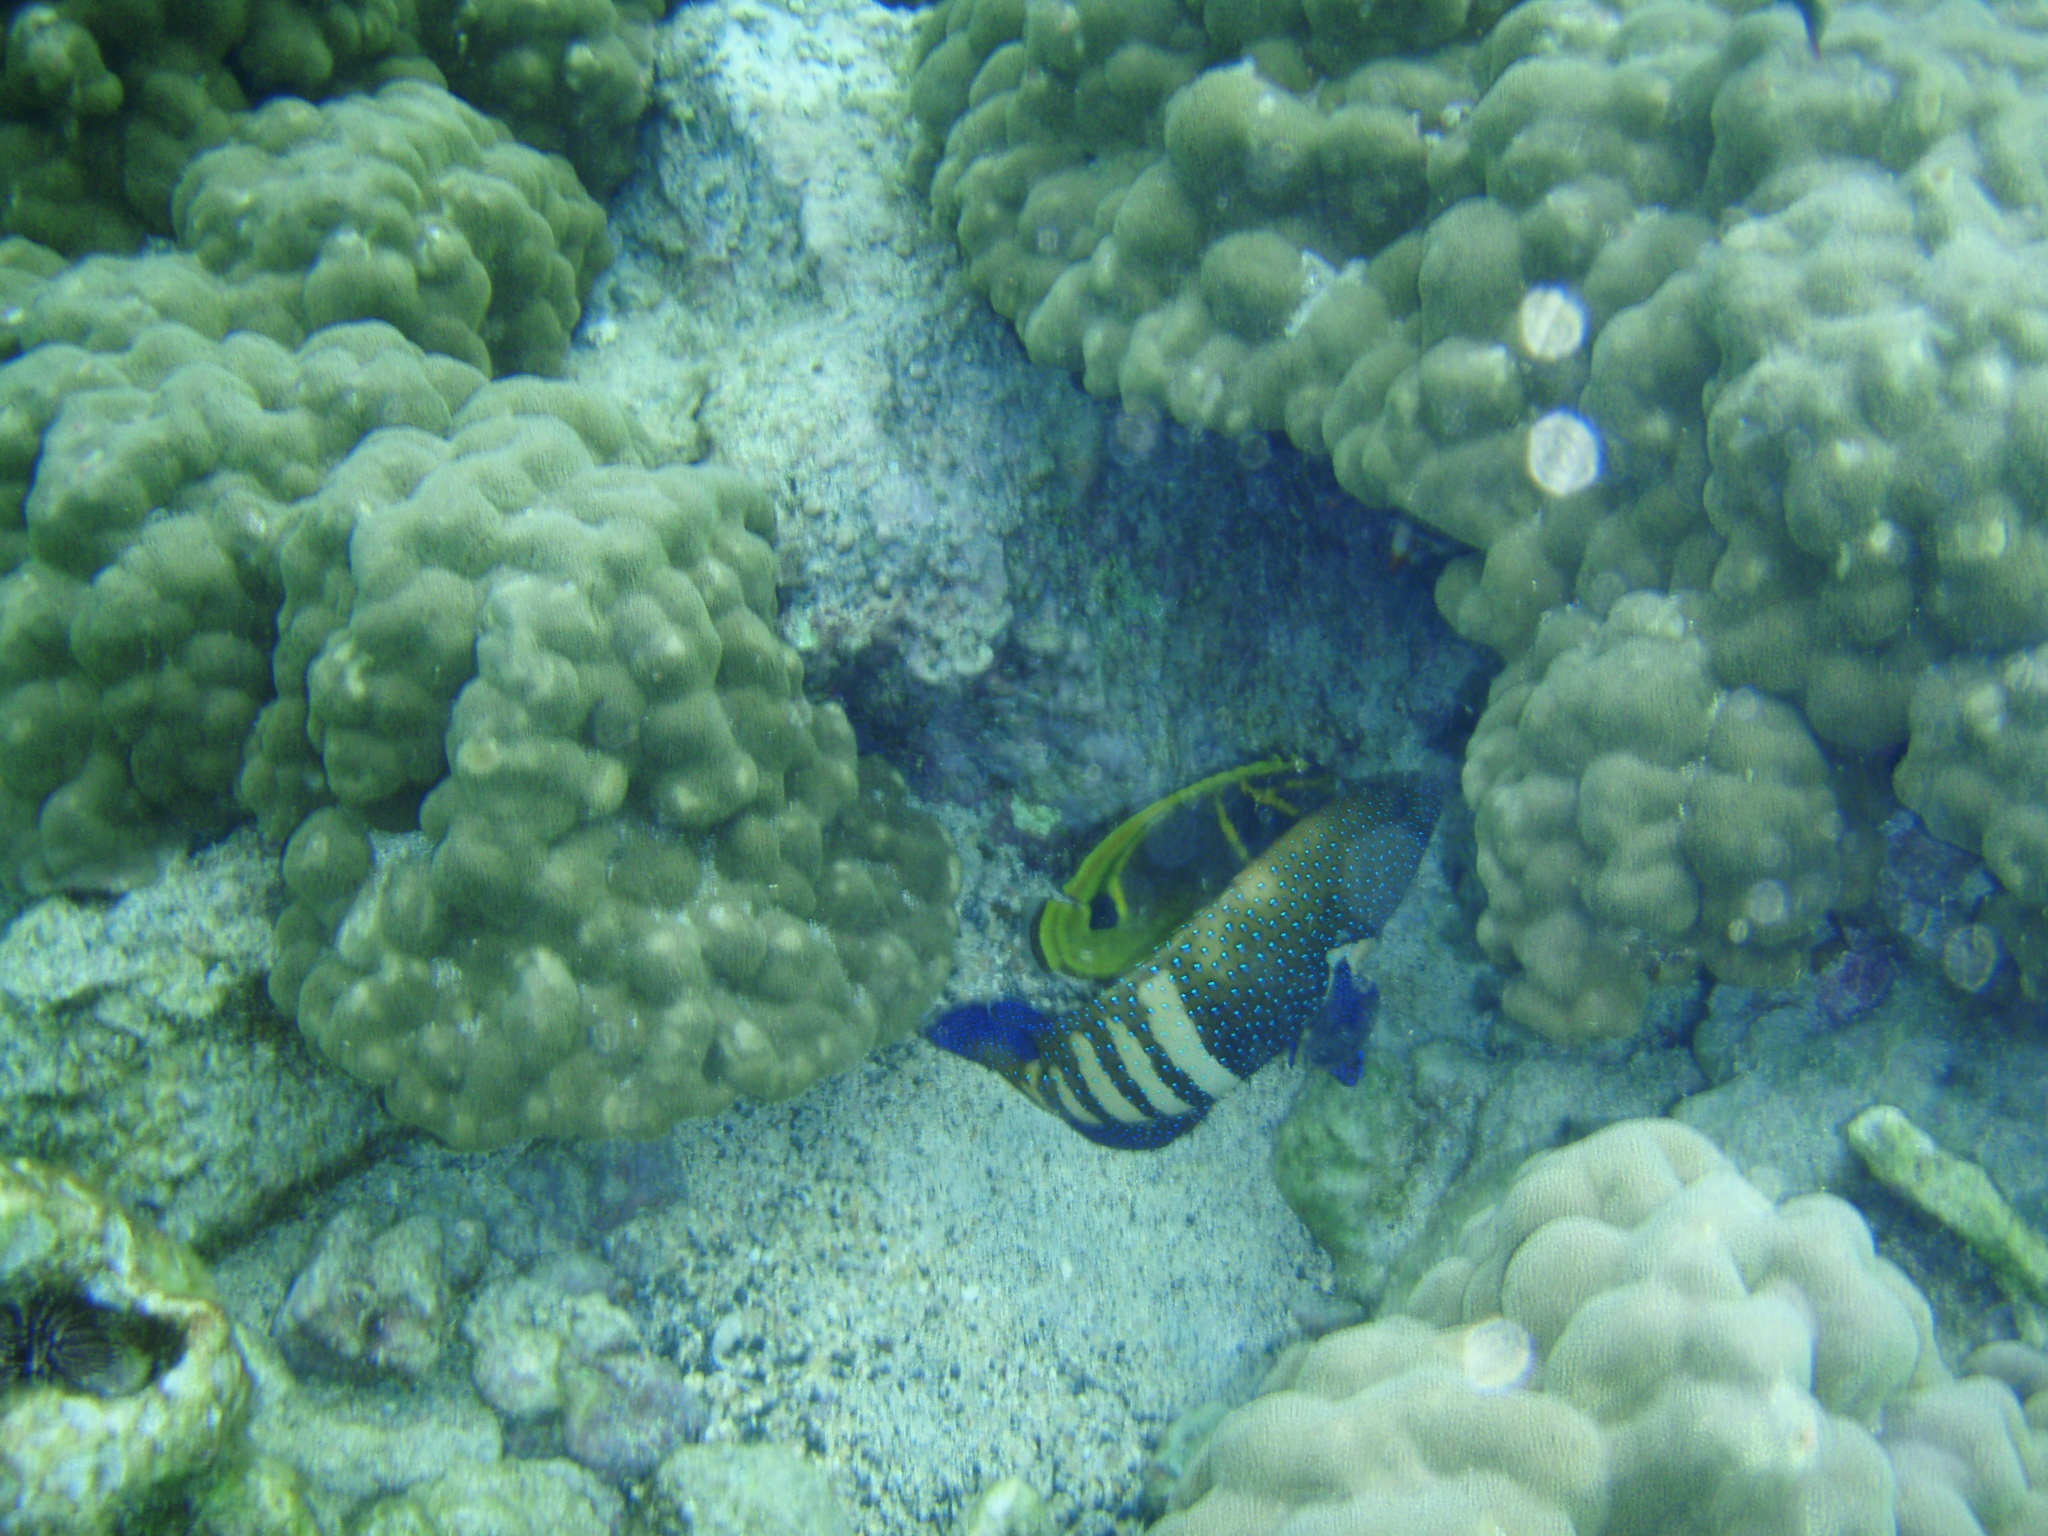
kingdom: Animalia
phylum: Chordata
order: Perciformes
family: Serranidae
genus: Cephalopholis
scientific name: Cephalopholis argus
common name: Peacock grouper
